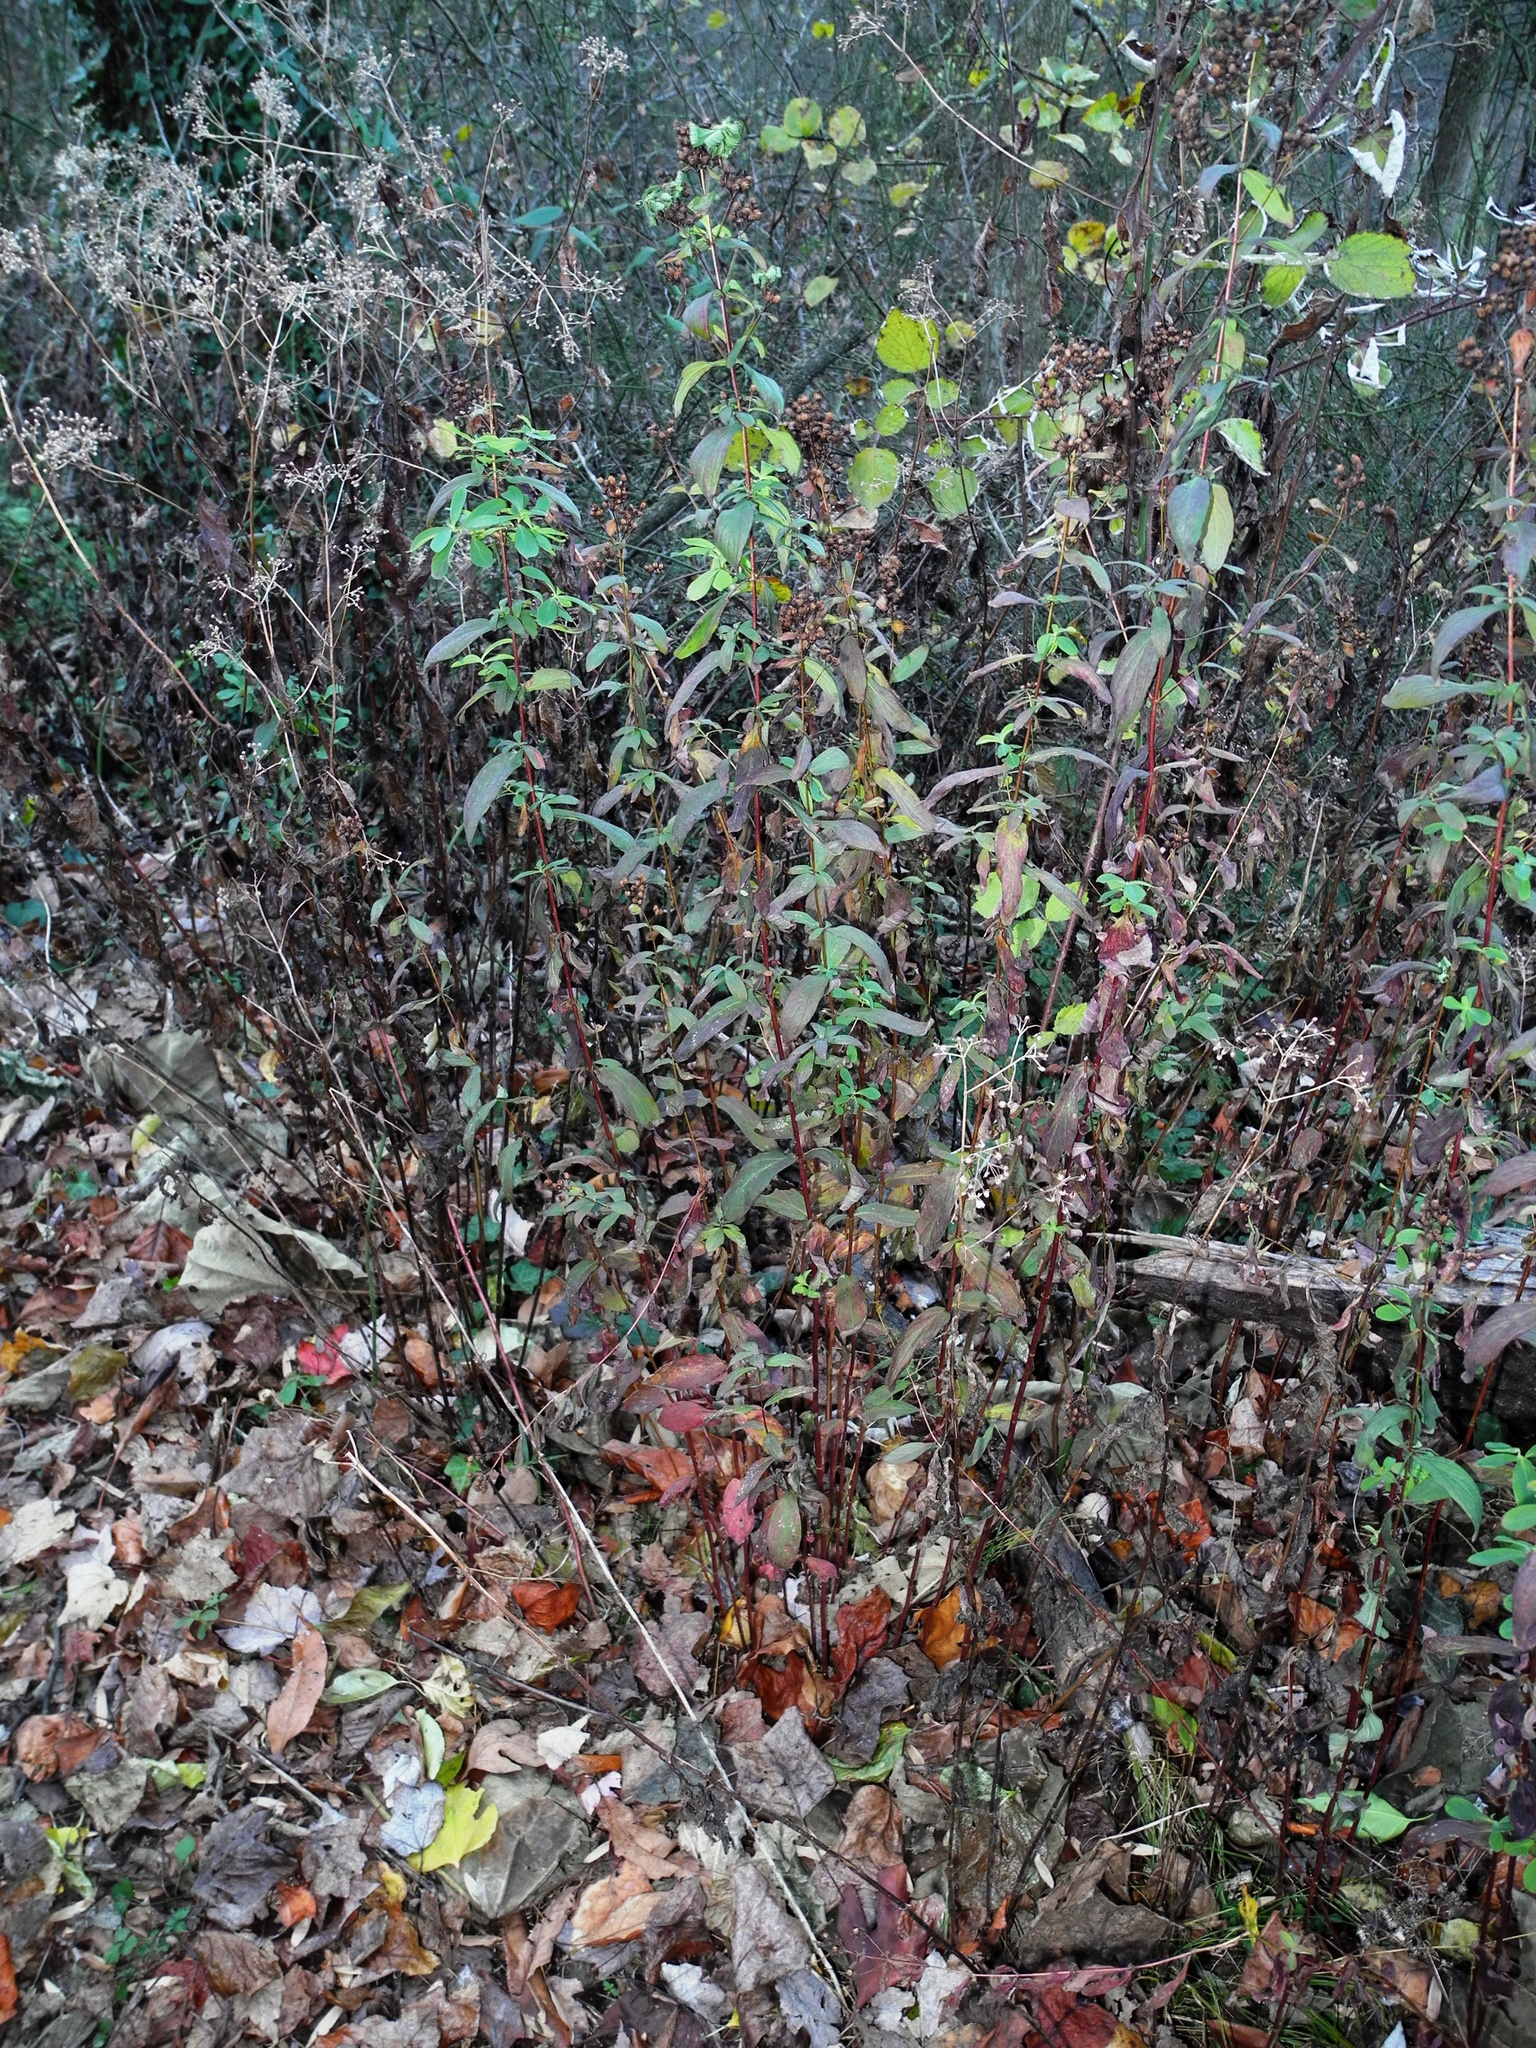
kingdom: Plantae
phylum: Tracheophyta
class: Magnoliopsida
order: Malpighiales
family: Hypericaceae
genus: Hypericum
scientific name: Hypericum punctatum
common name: Spotted st. john's-wort
